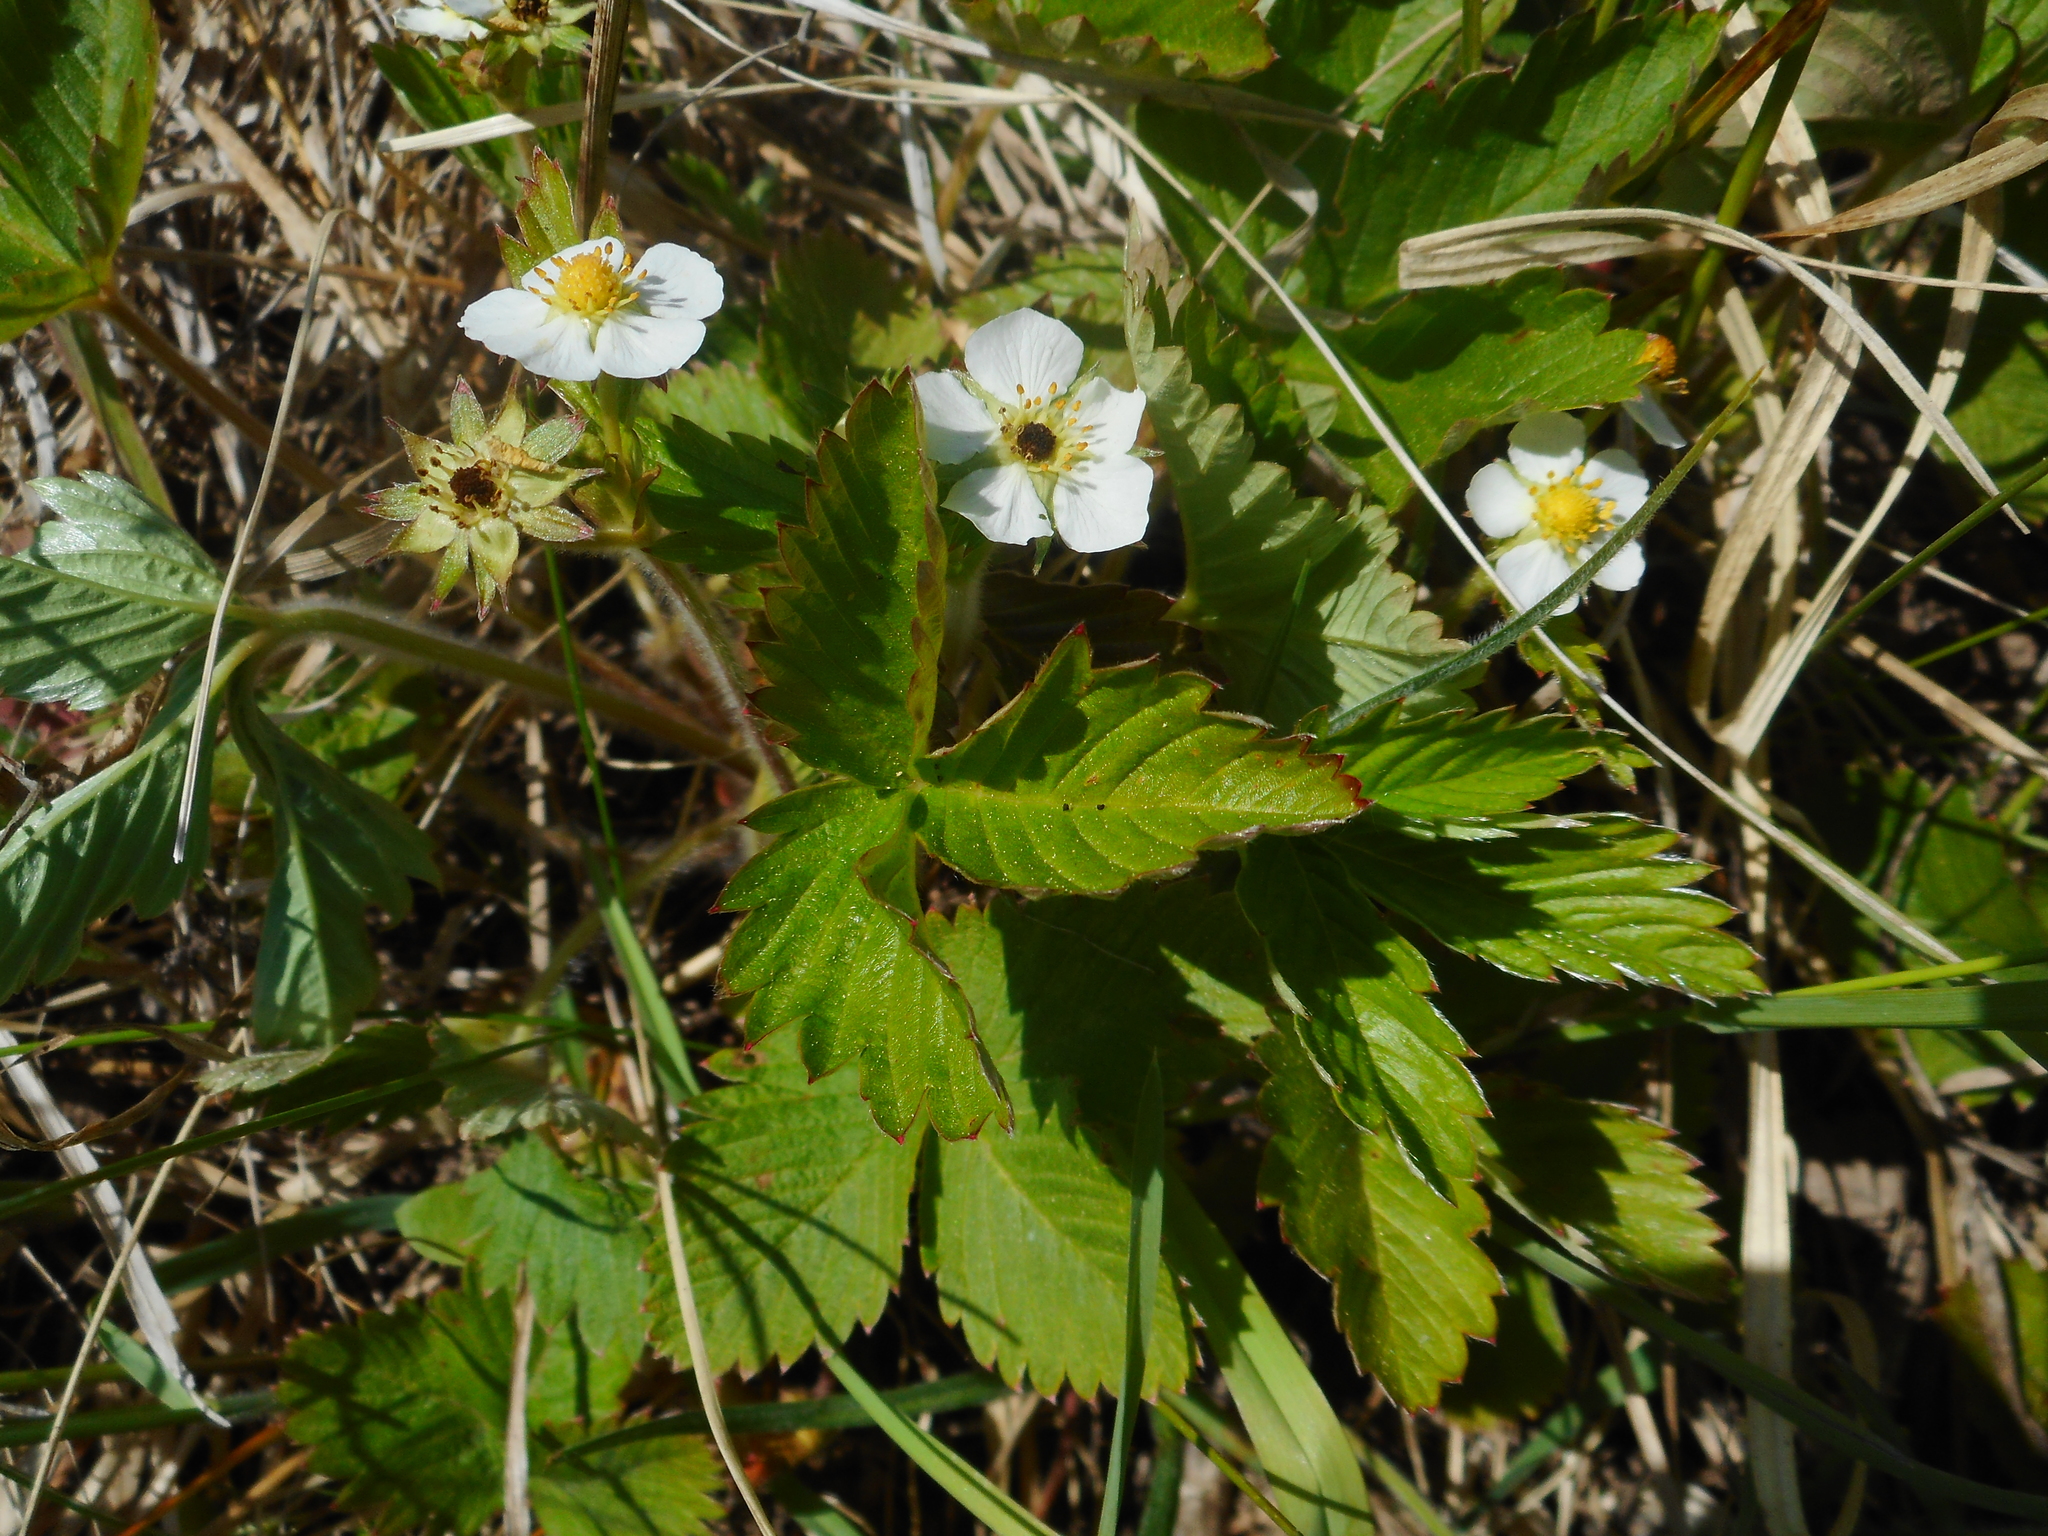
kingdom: Plantae
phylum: Tracheophyta
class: Magnoliopsida
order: Rosales
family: Rosaceae
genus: Fragaria
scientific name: Fragaria vesca
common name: Wild strawberry
